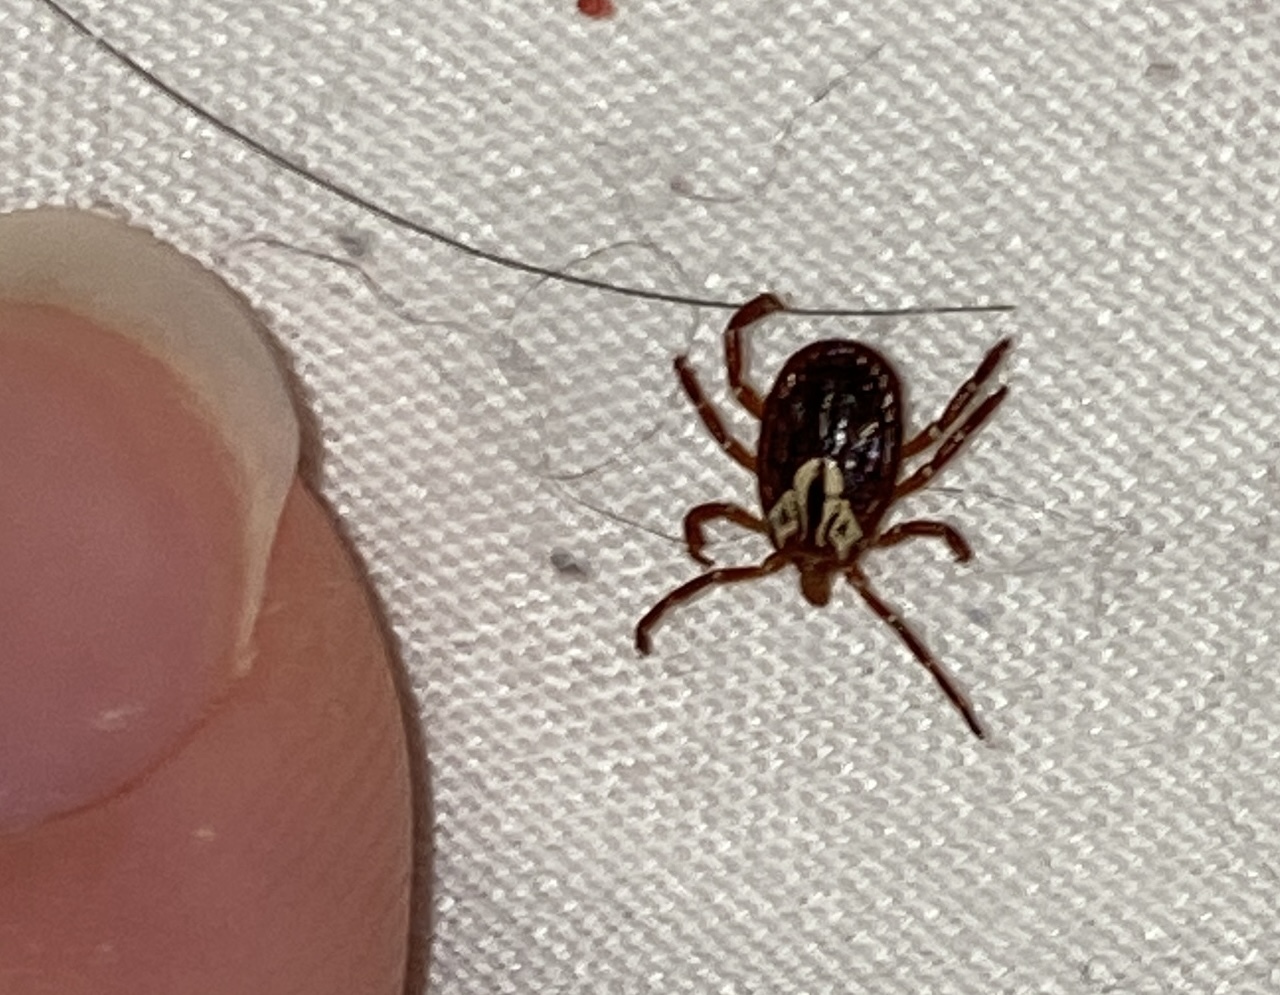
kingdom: Animalia
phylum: Arthropoda
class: Arachnida
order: Ixodida
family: Ixodidae
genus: Amblyomma
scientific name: Amblyomma maculatum
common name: Gulf coast tick
